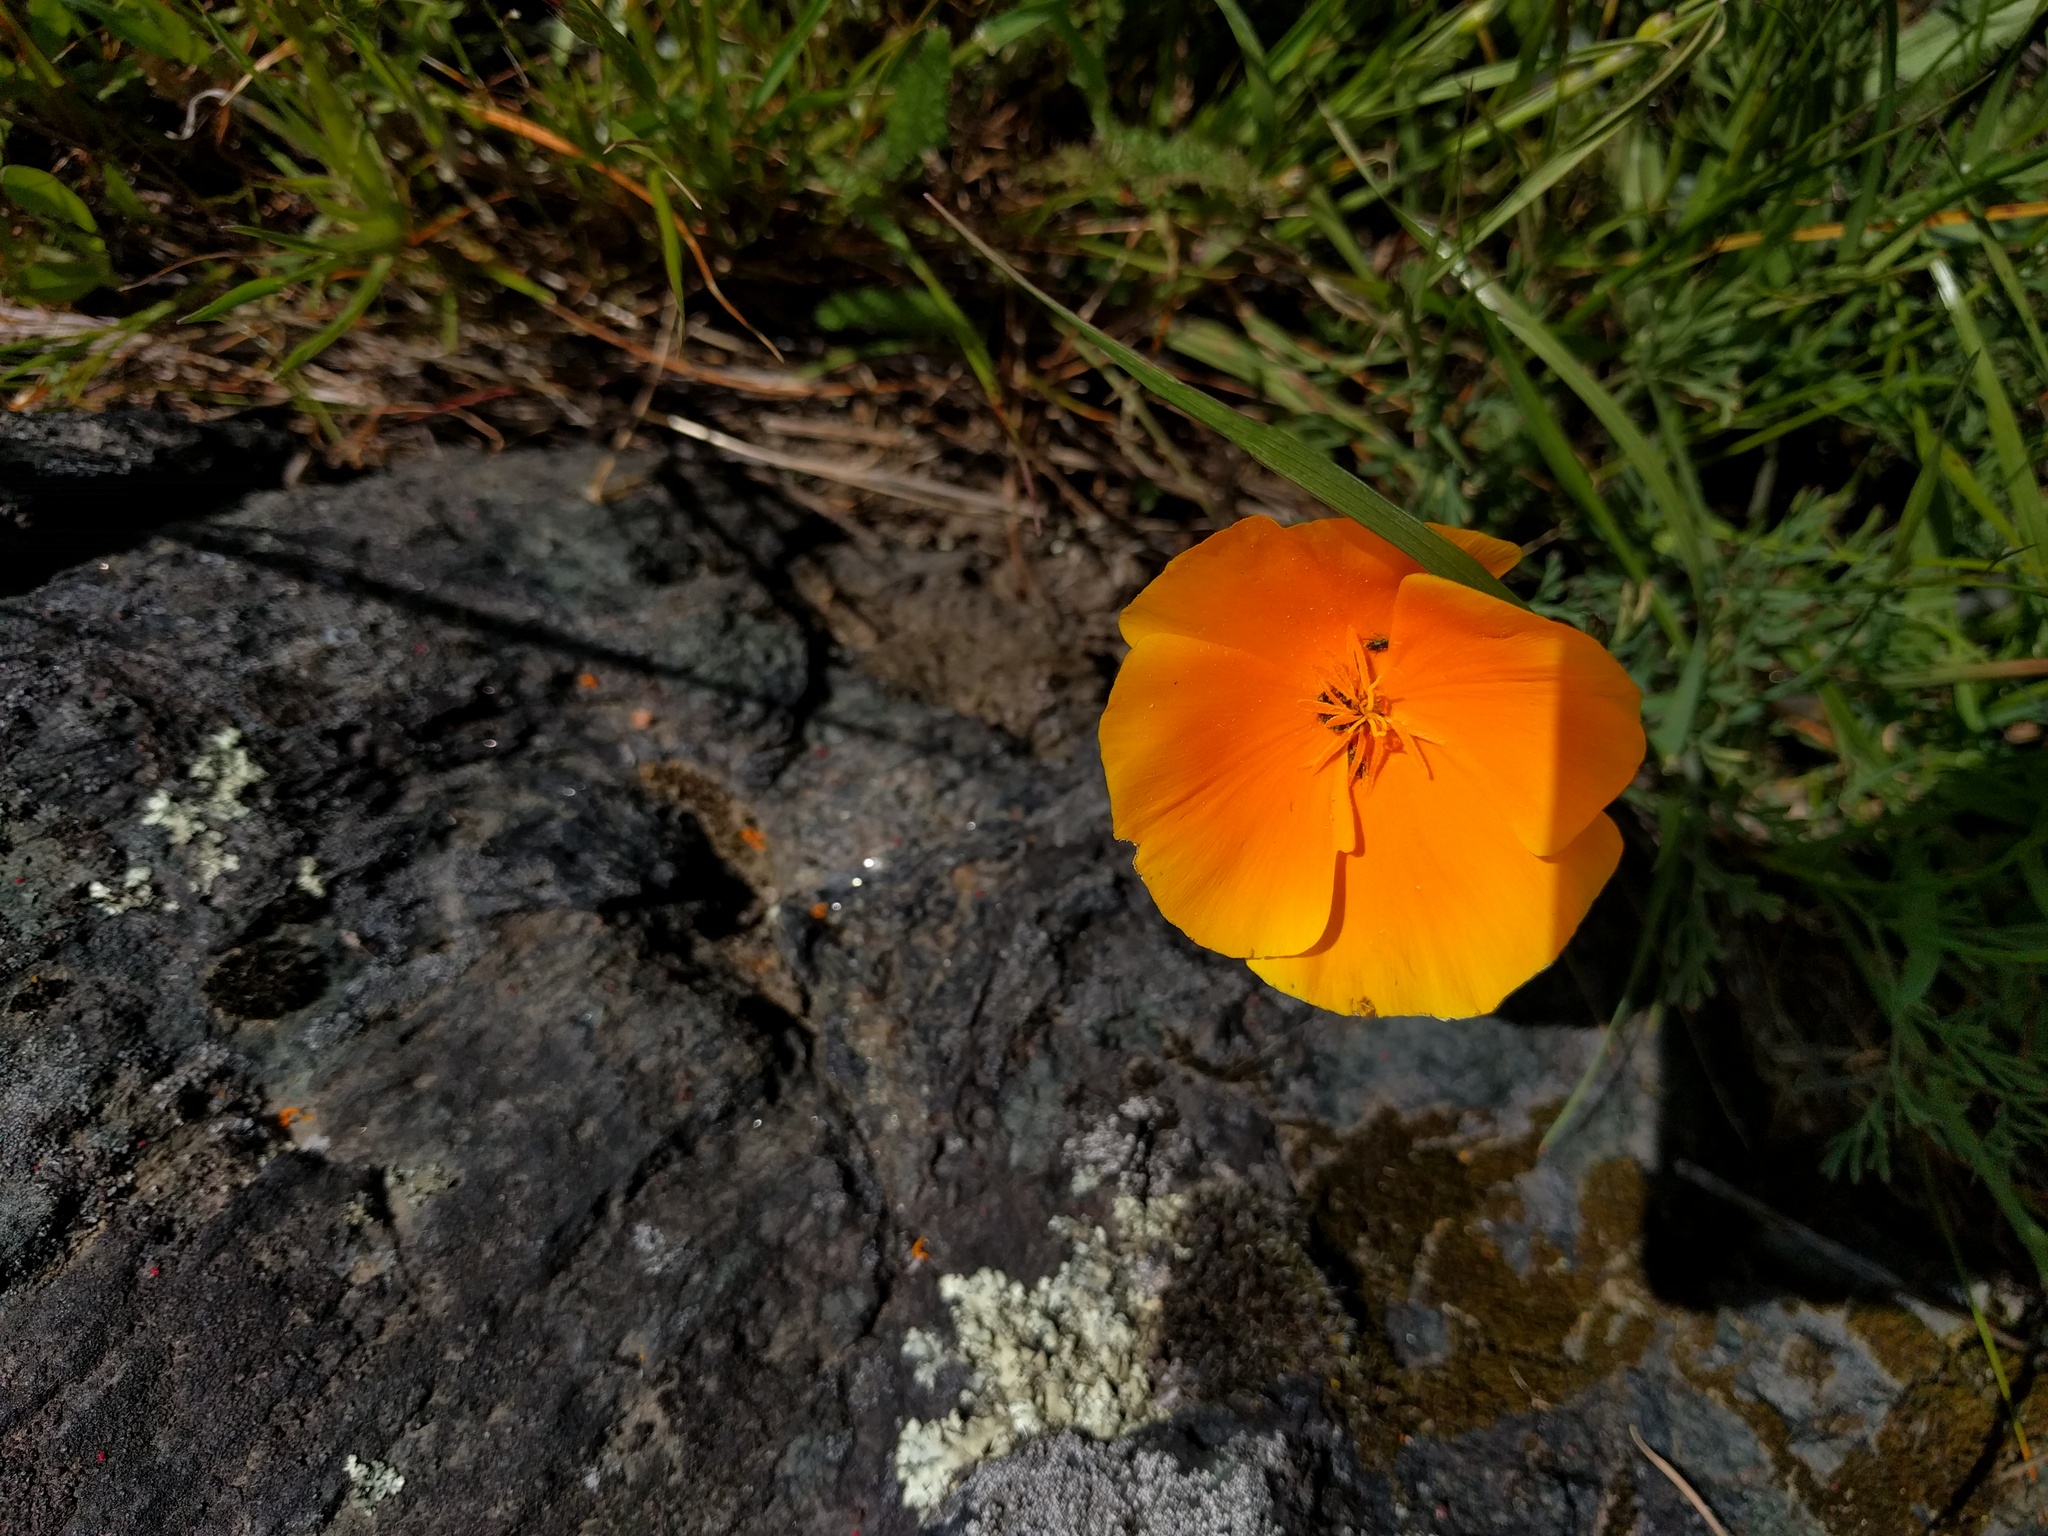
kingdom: Plantae
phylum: Tracheophyta
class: Magnoliopsida
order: Ranunculales
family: Papaveraceae
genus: Eschscholzia
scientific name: Eschscholzia californica
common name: California poppy
